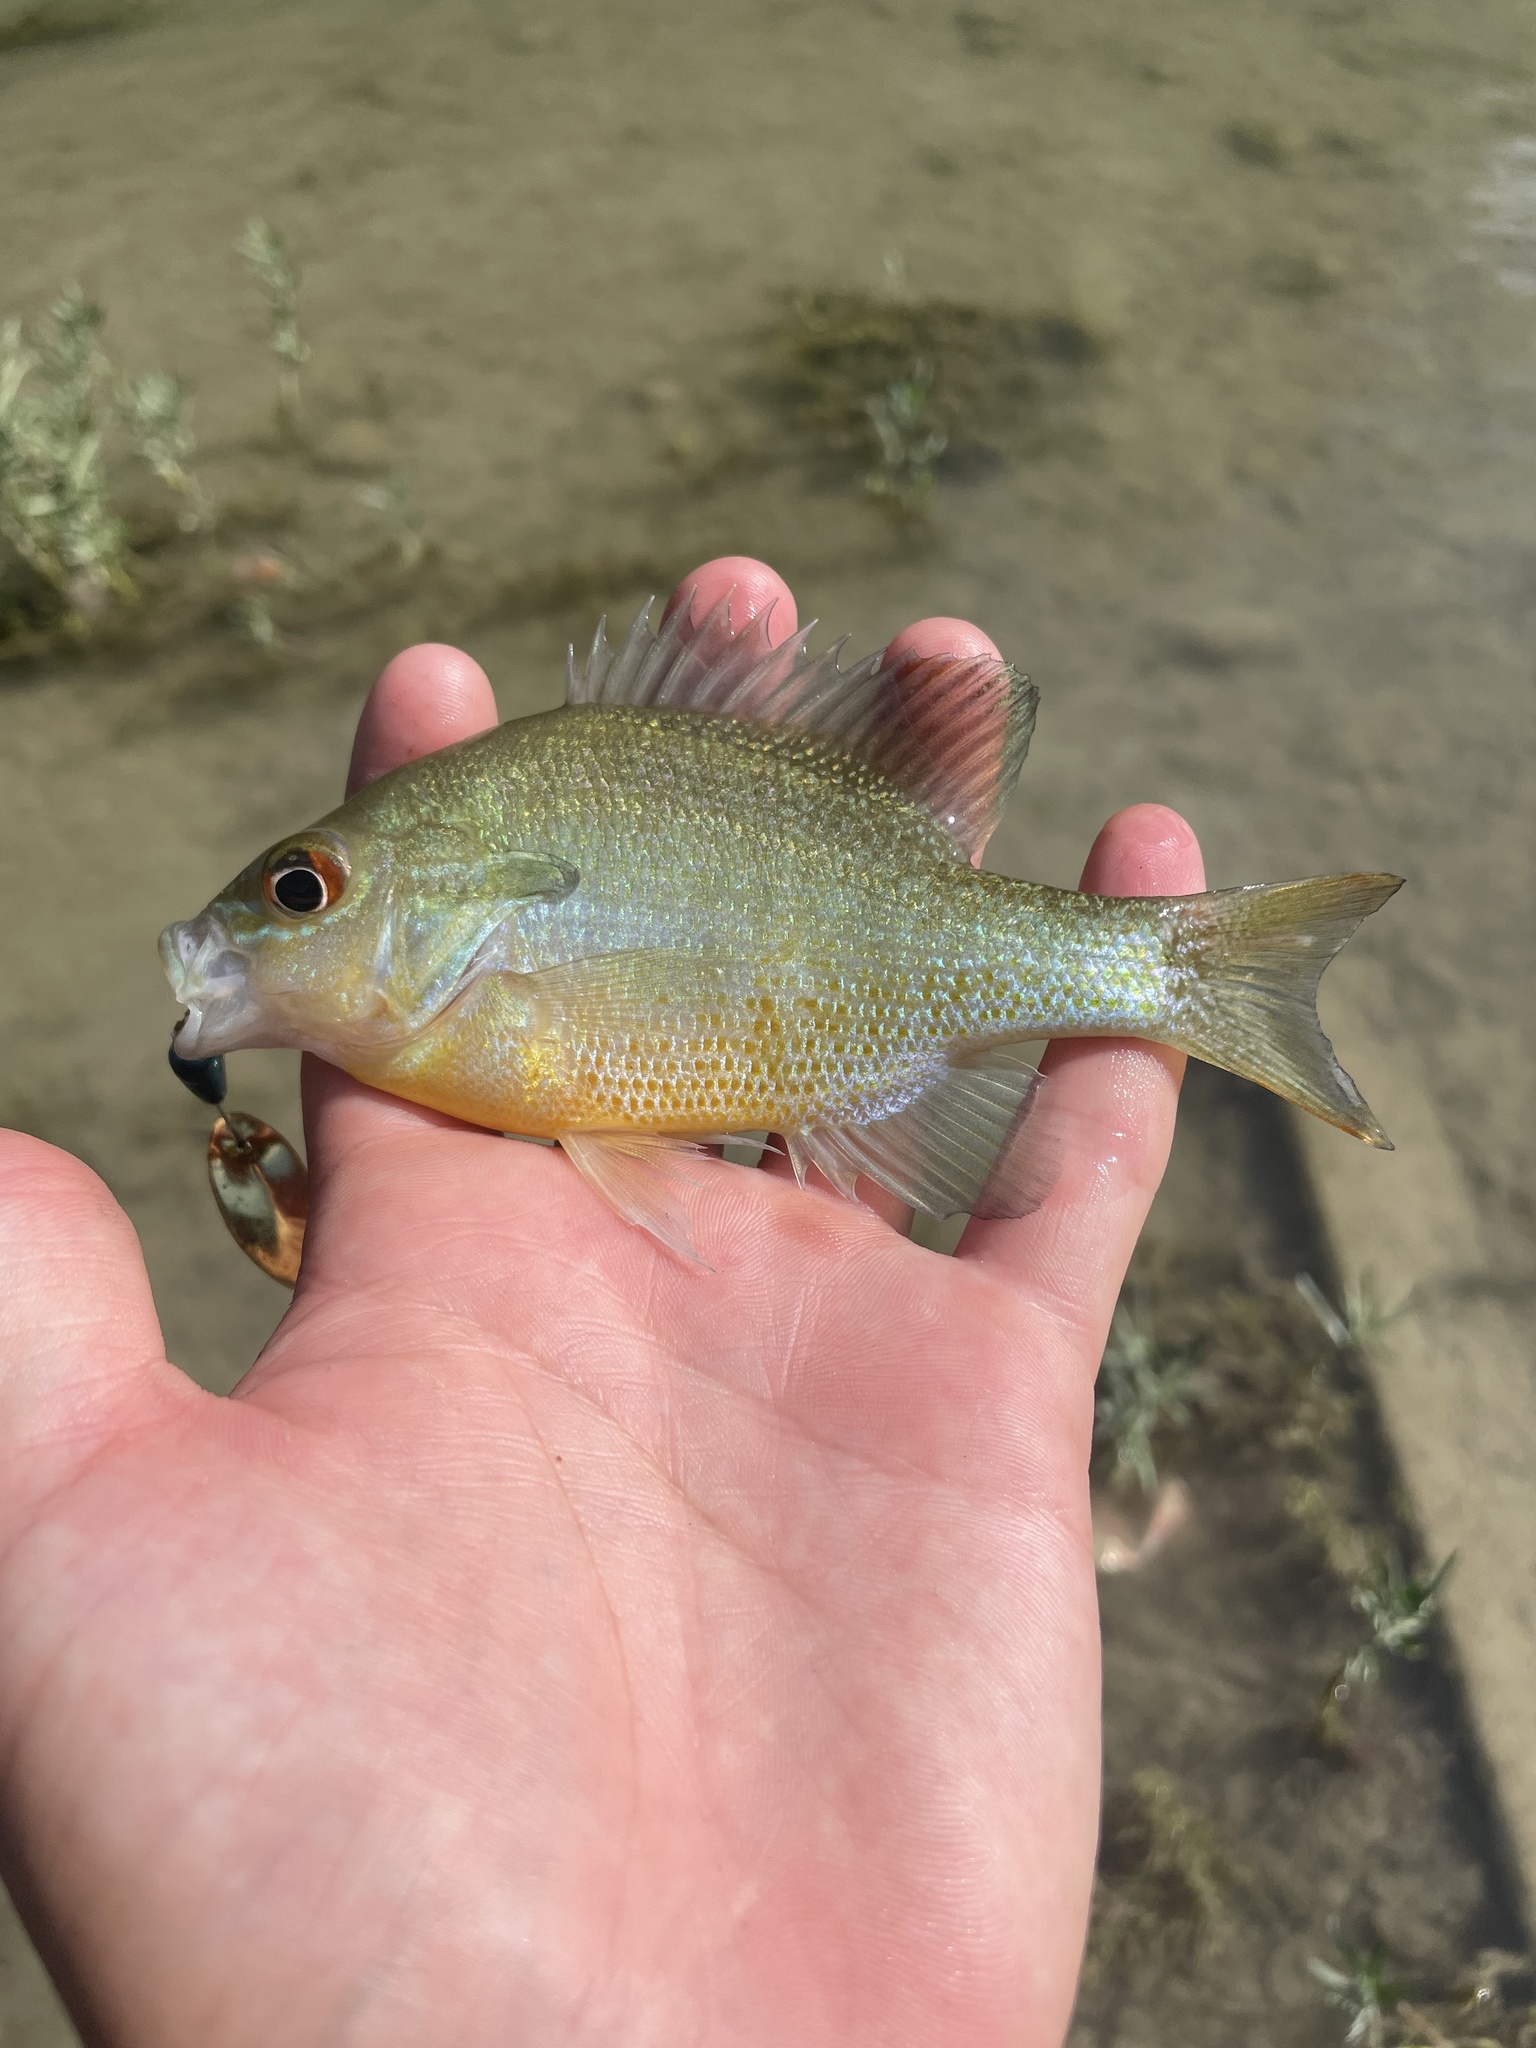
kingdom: Animalia
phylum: Chordata
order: Perciformes
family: Centrarchidae
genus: Lepomis
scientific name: Lepomis auritus
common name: Redbreast sunfish
